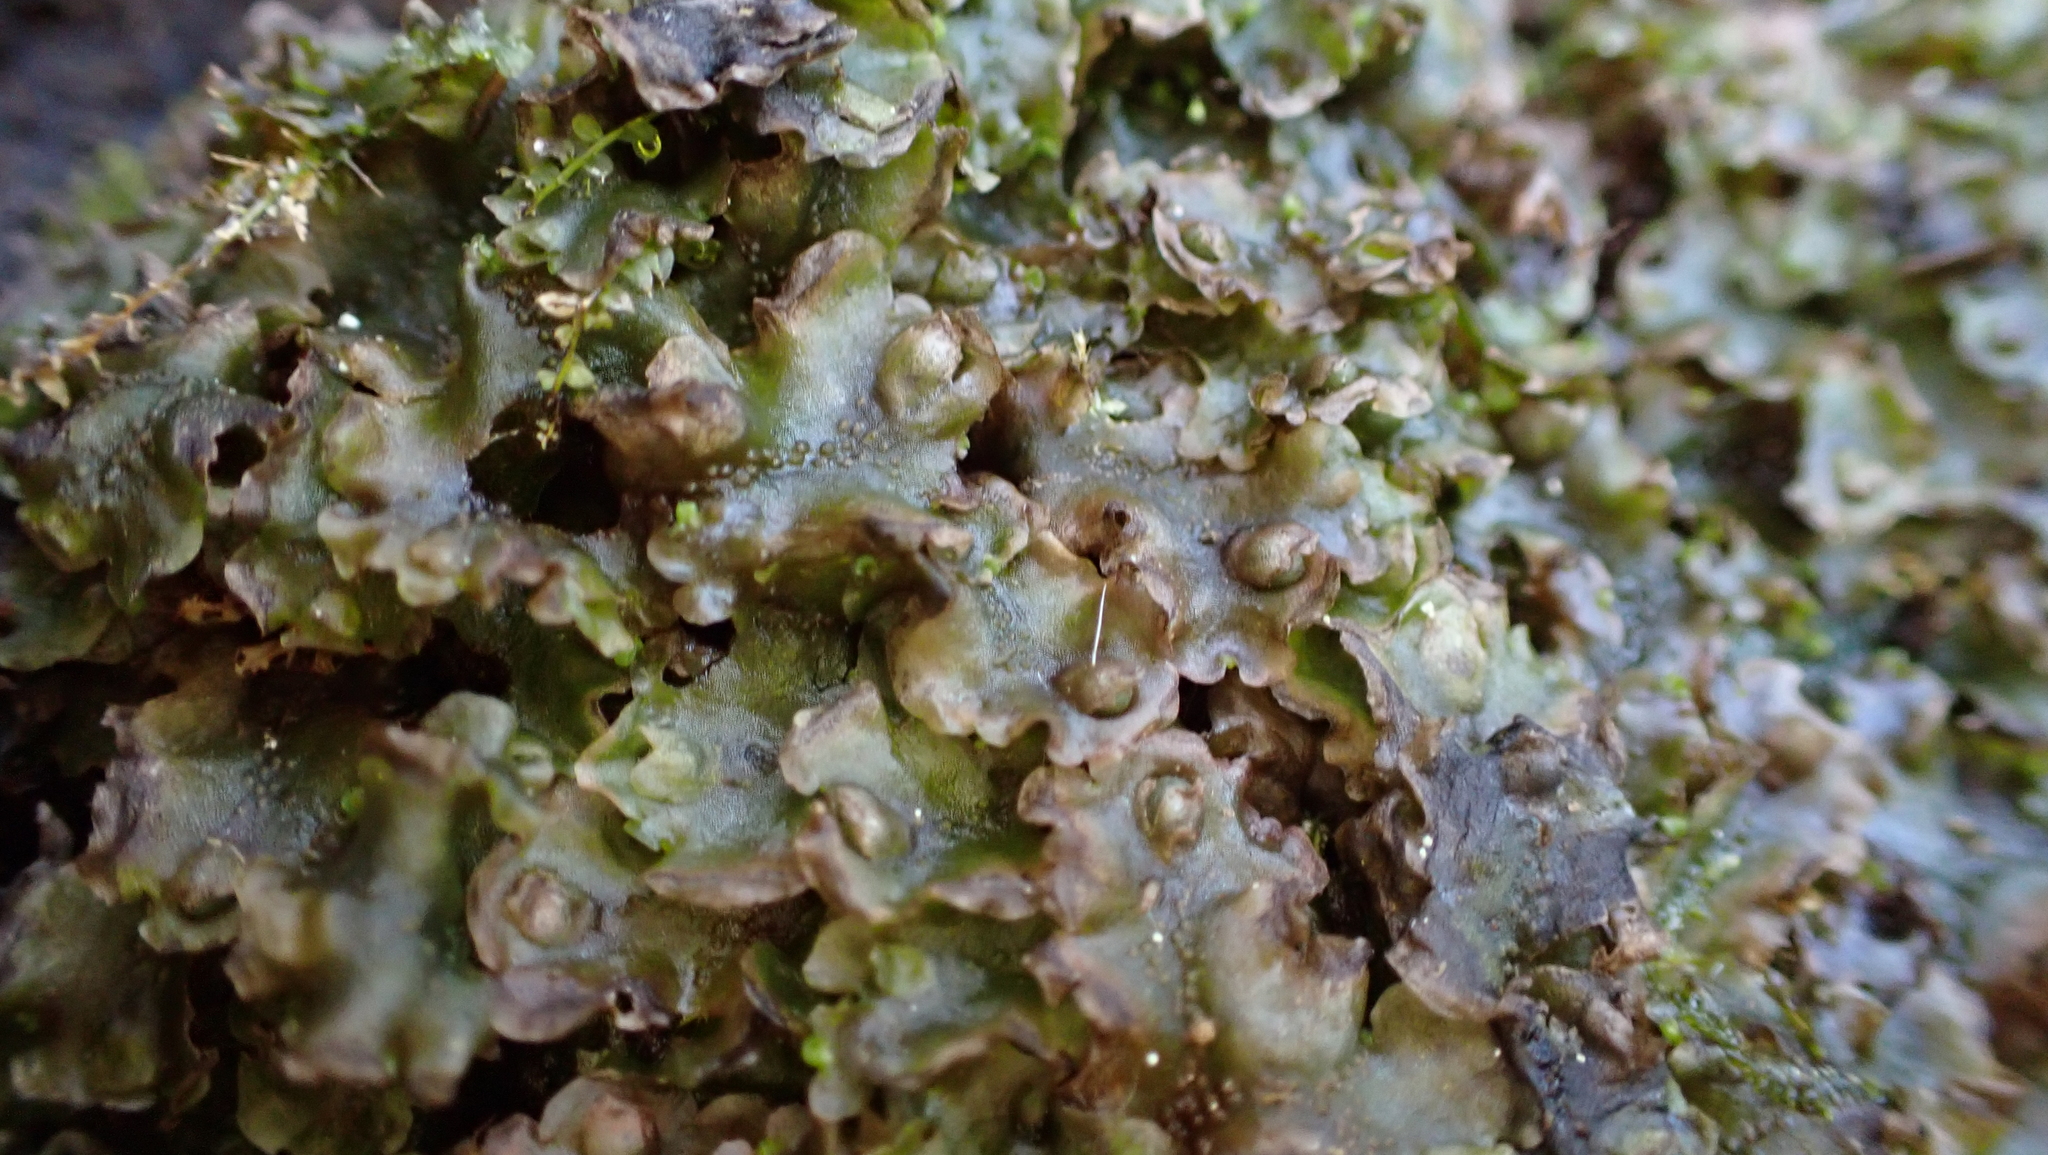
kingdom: Plantae
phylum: Marchantiophyta
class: Jungermanniopsida
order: Pelliales
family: Pelliaceae
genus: Pellia
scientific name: Pellia epiphylla
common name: Common pellia
